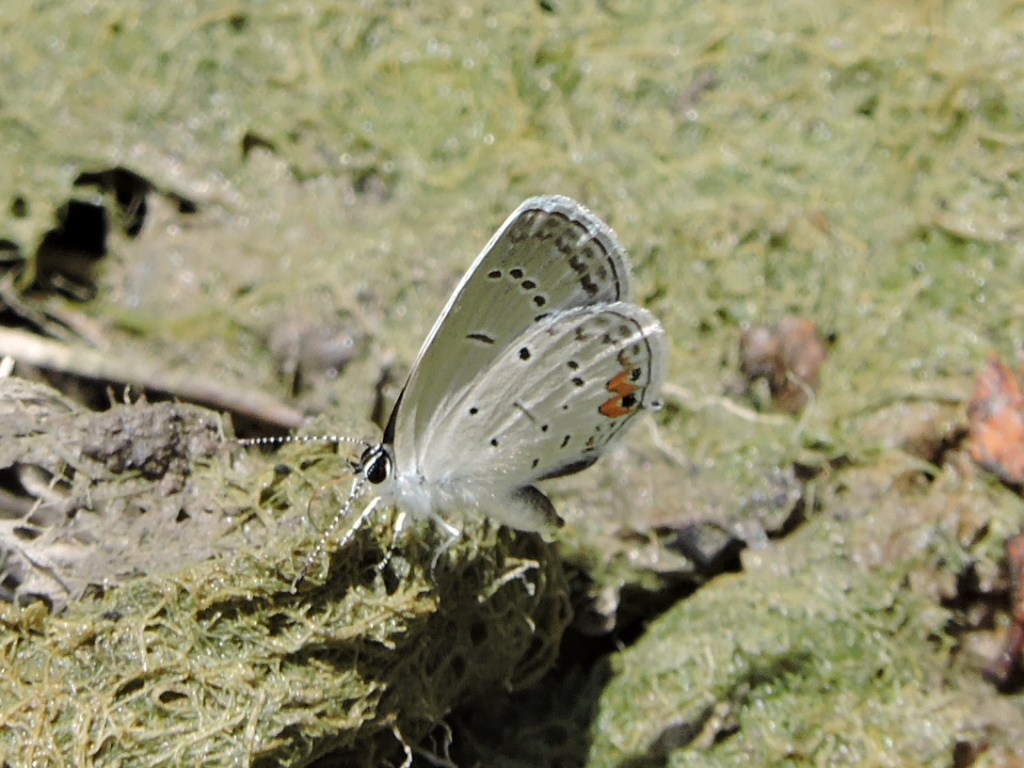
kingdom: Animalia
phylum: Arthropoda
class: Insecta
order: Lepidoptera
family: Lycaenidae
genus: Elkalyce
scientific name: Elkalyce comyntas
